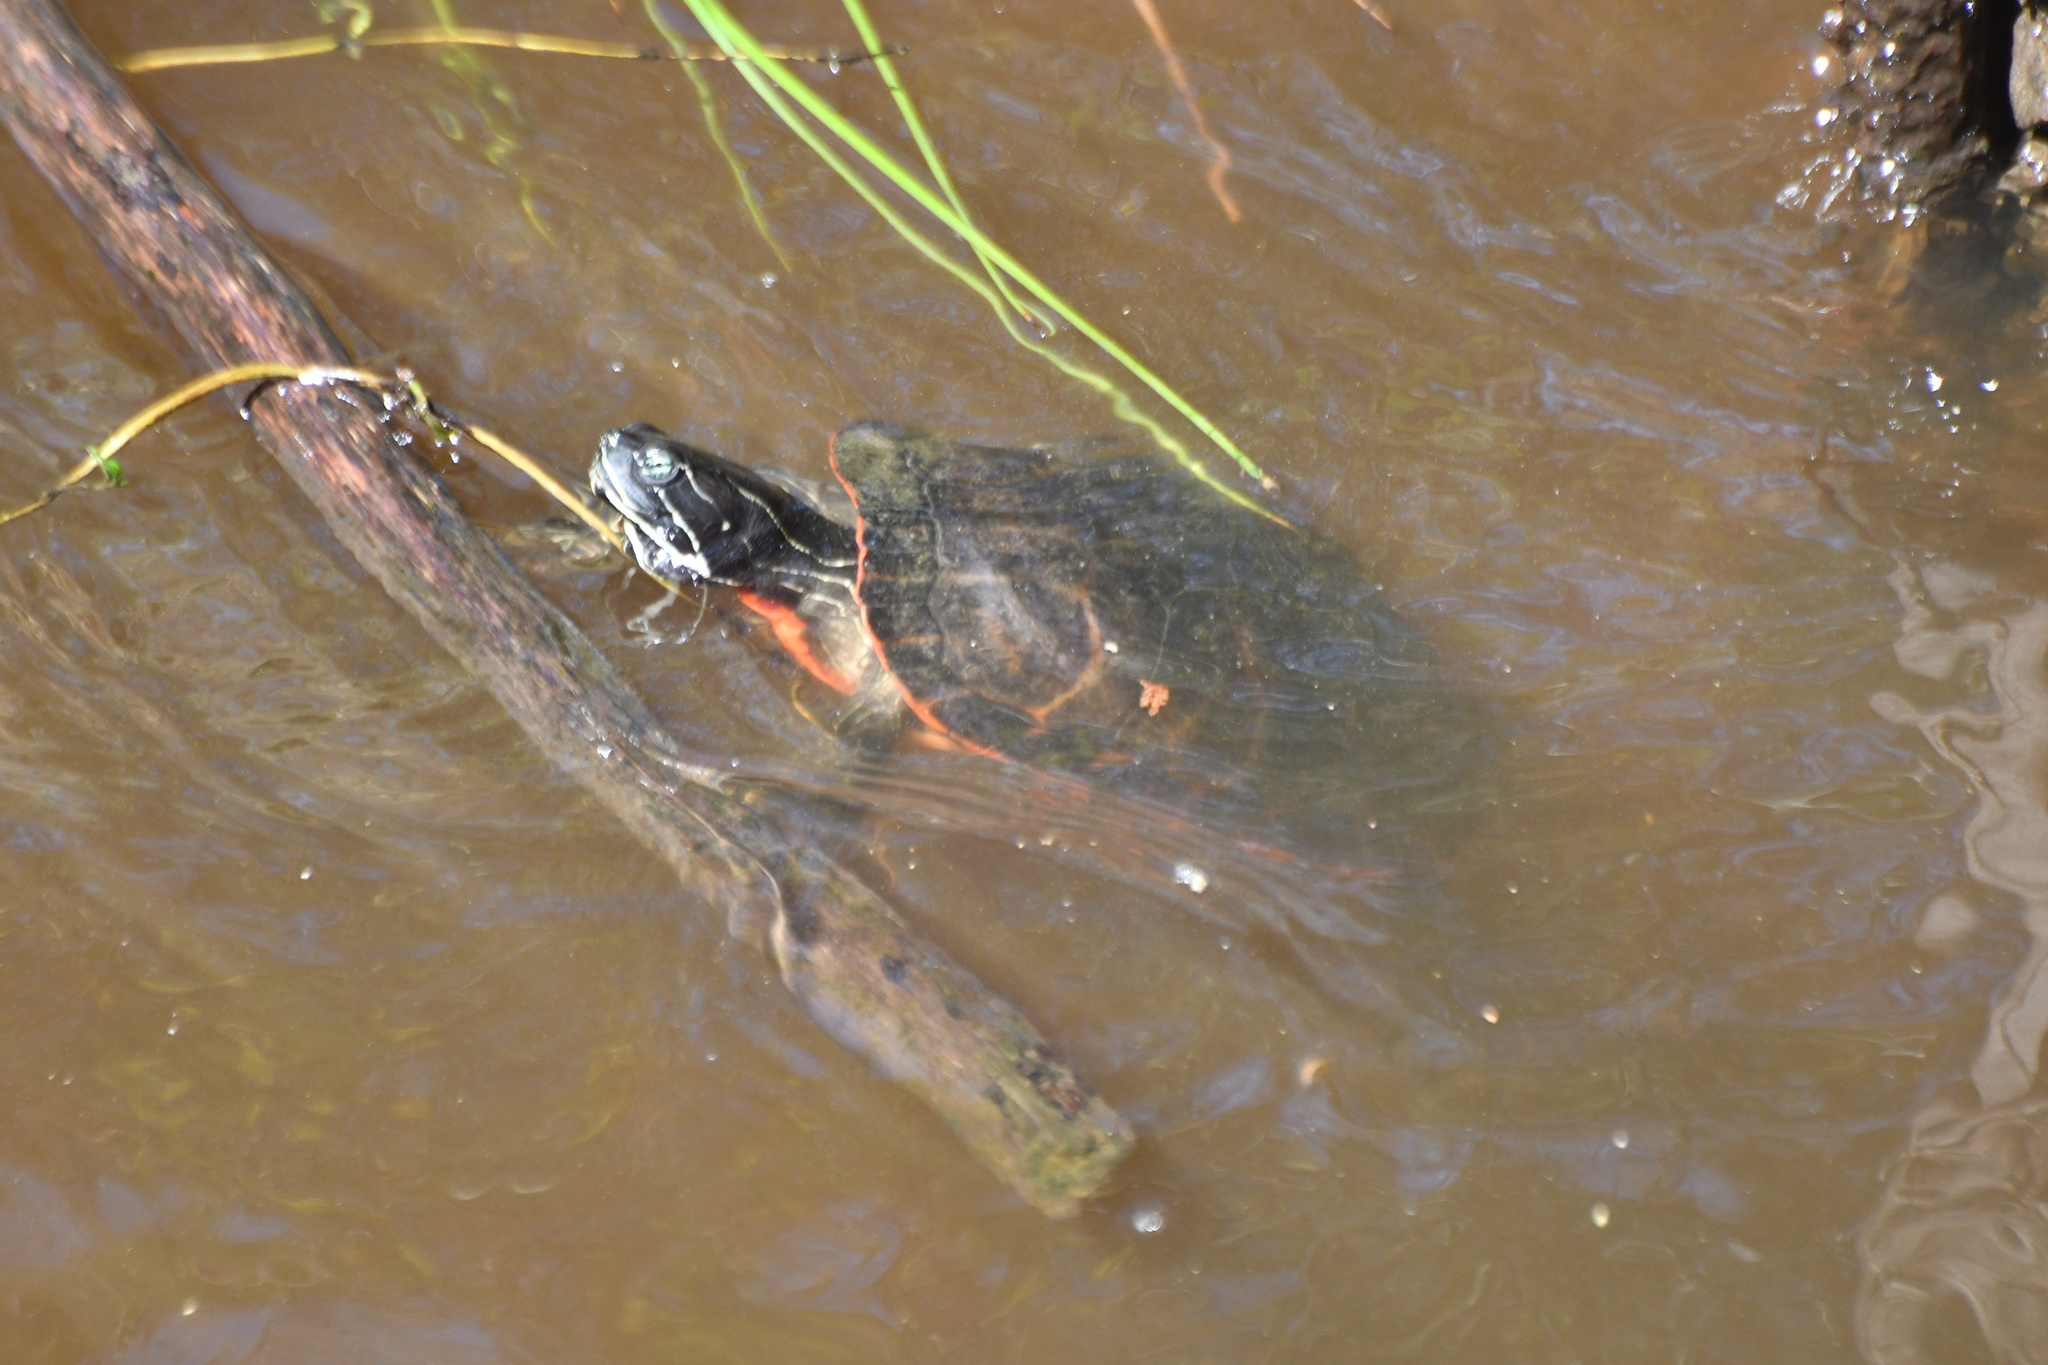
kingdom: Animalia
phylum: Chordata
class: Testudines
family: Emydidae
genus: Pseudemys
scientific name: Pseudemys rubriventris
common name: American red-bellied turtle
